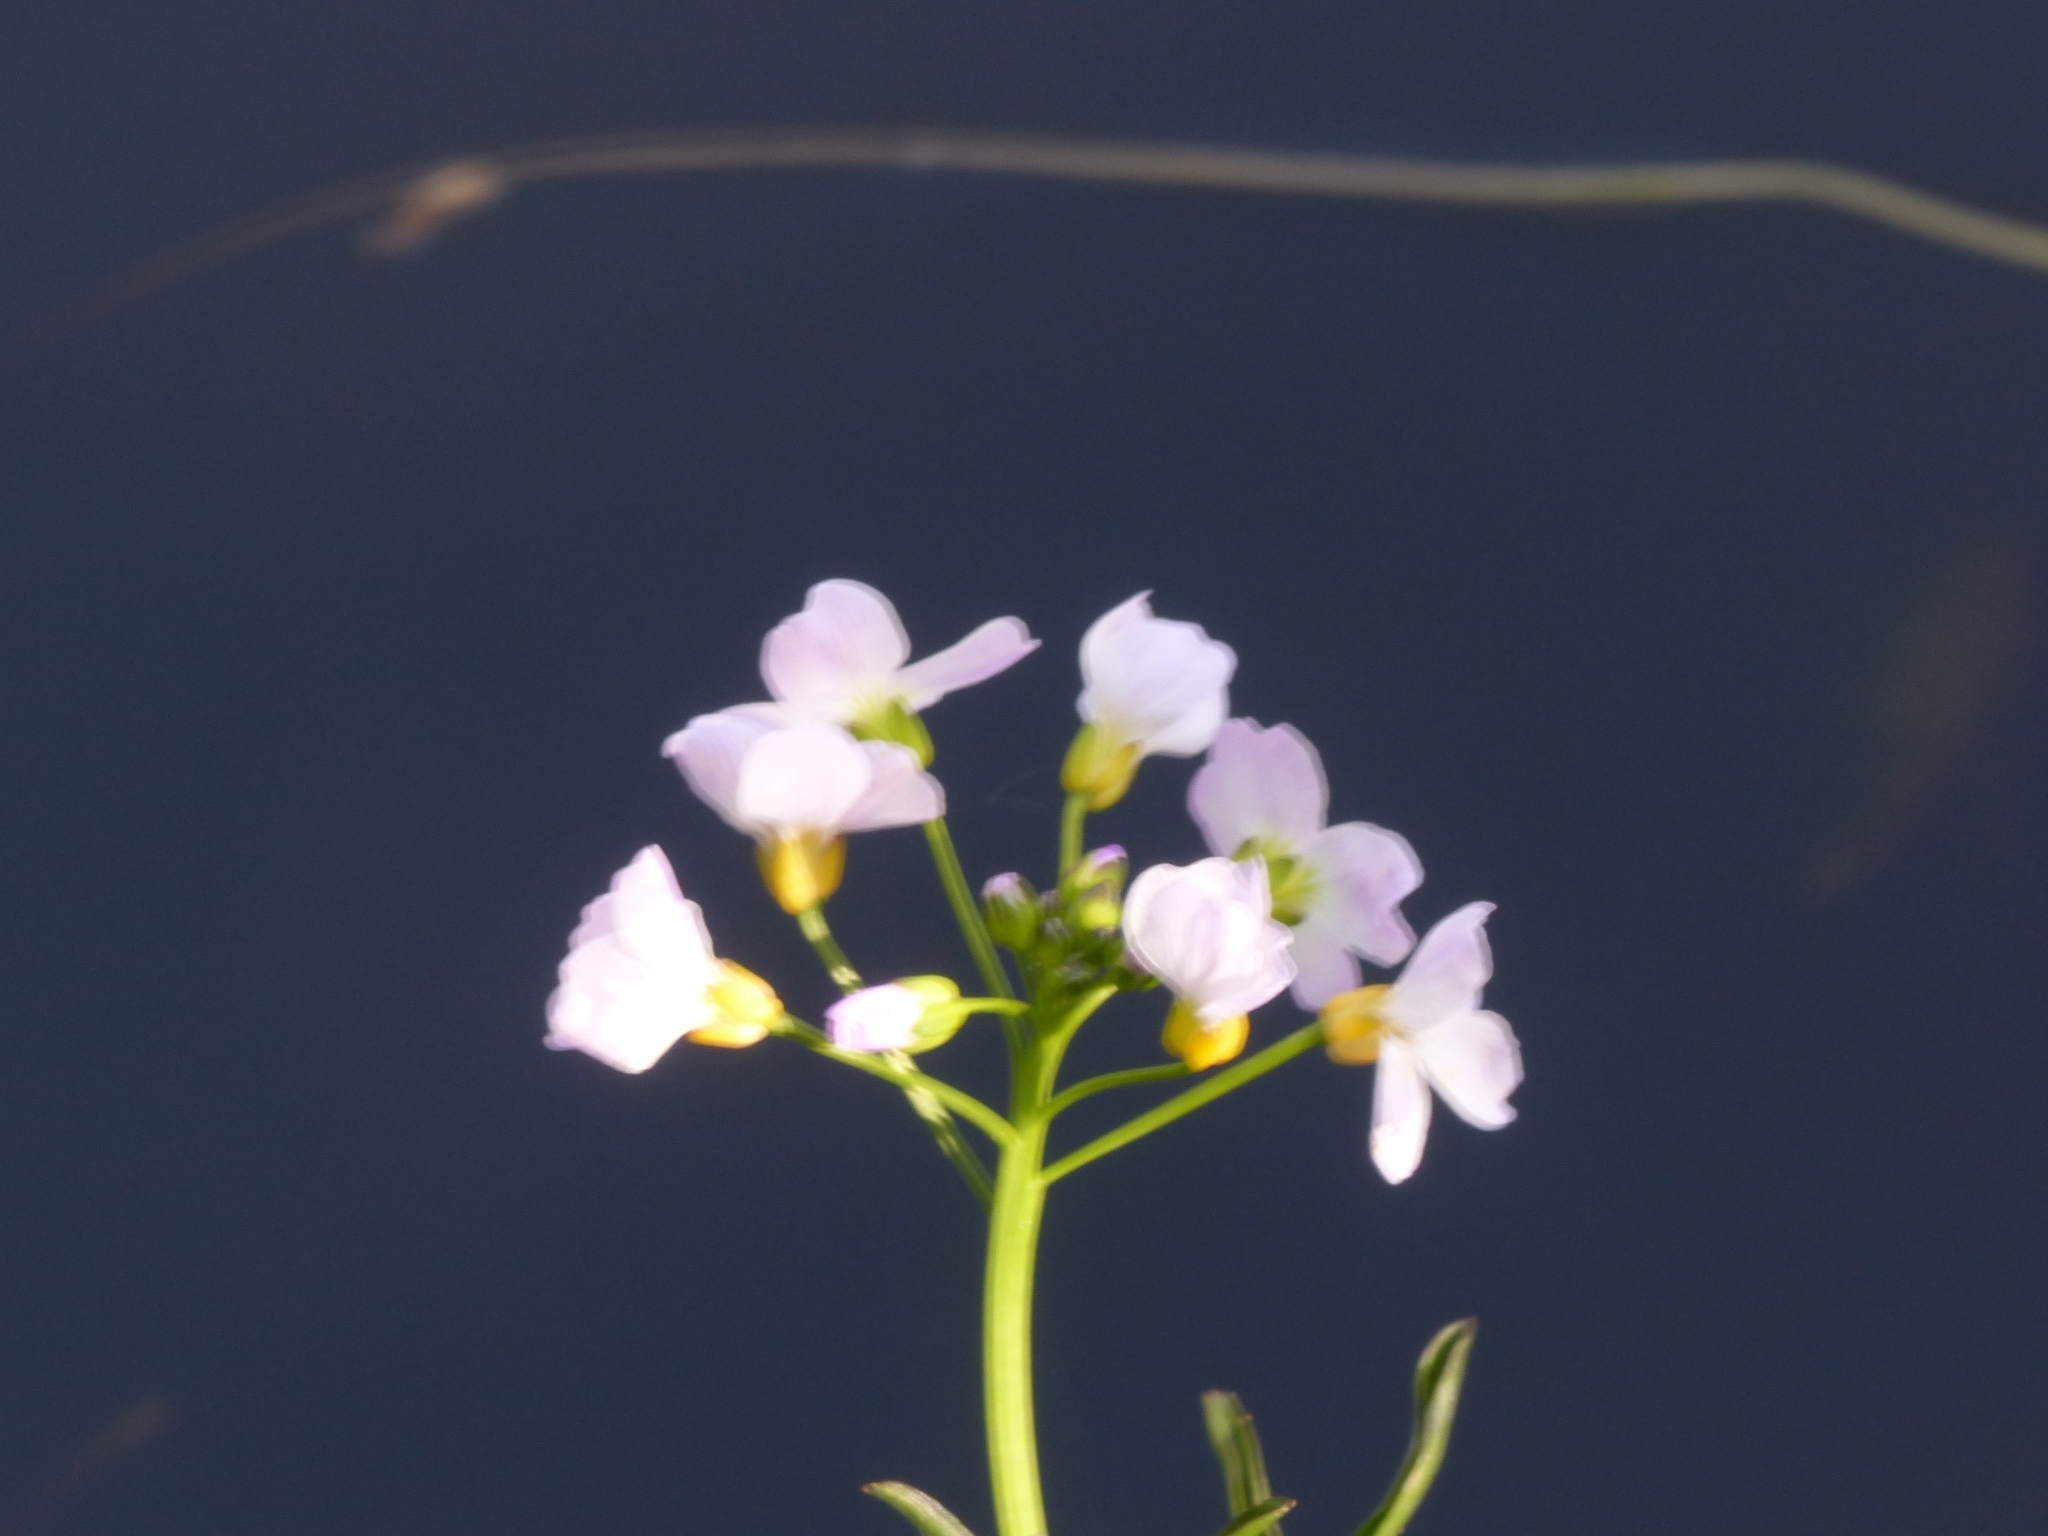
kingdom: Plantae
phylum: Tracheophyta
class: Magnoliopsida
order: Brassicales
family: Brassicaceae
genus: Cardamine
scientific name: Cardamine pratensis
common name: Cuckoo flower
